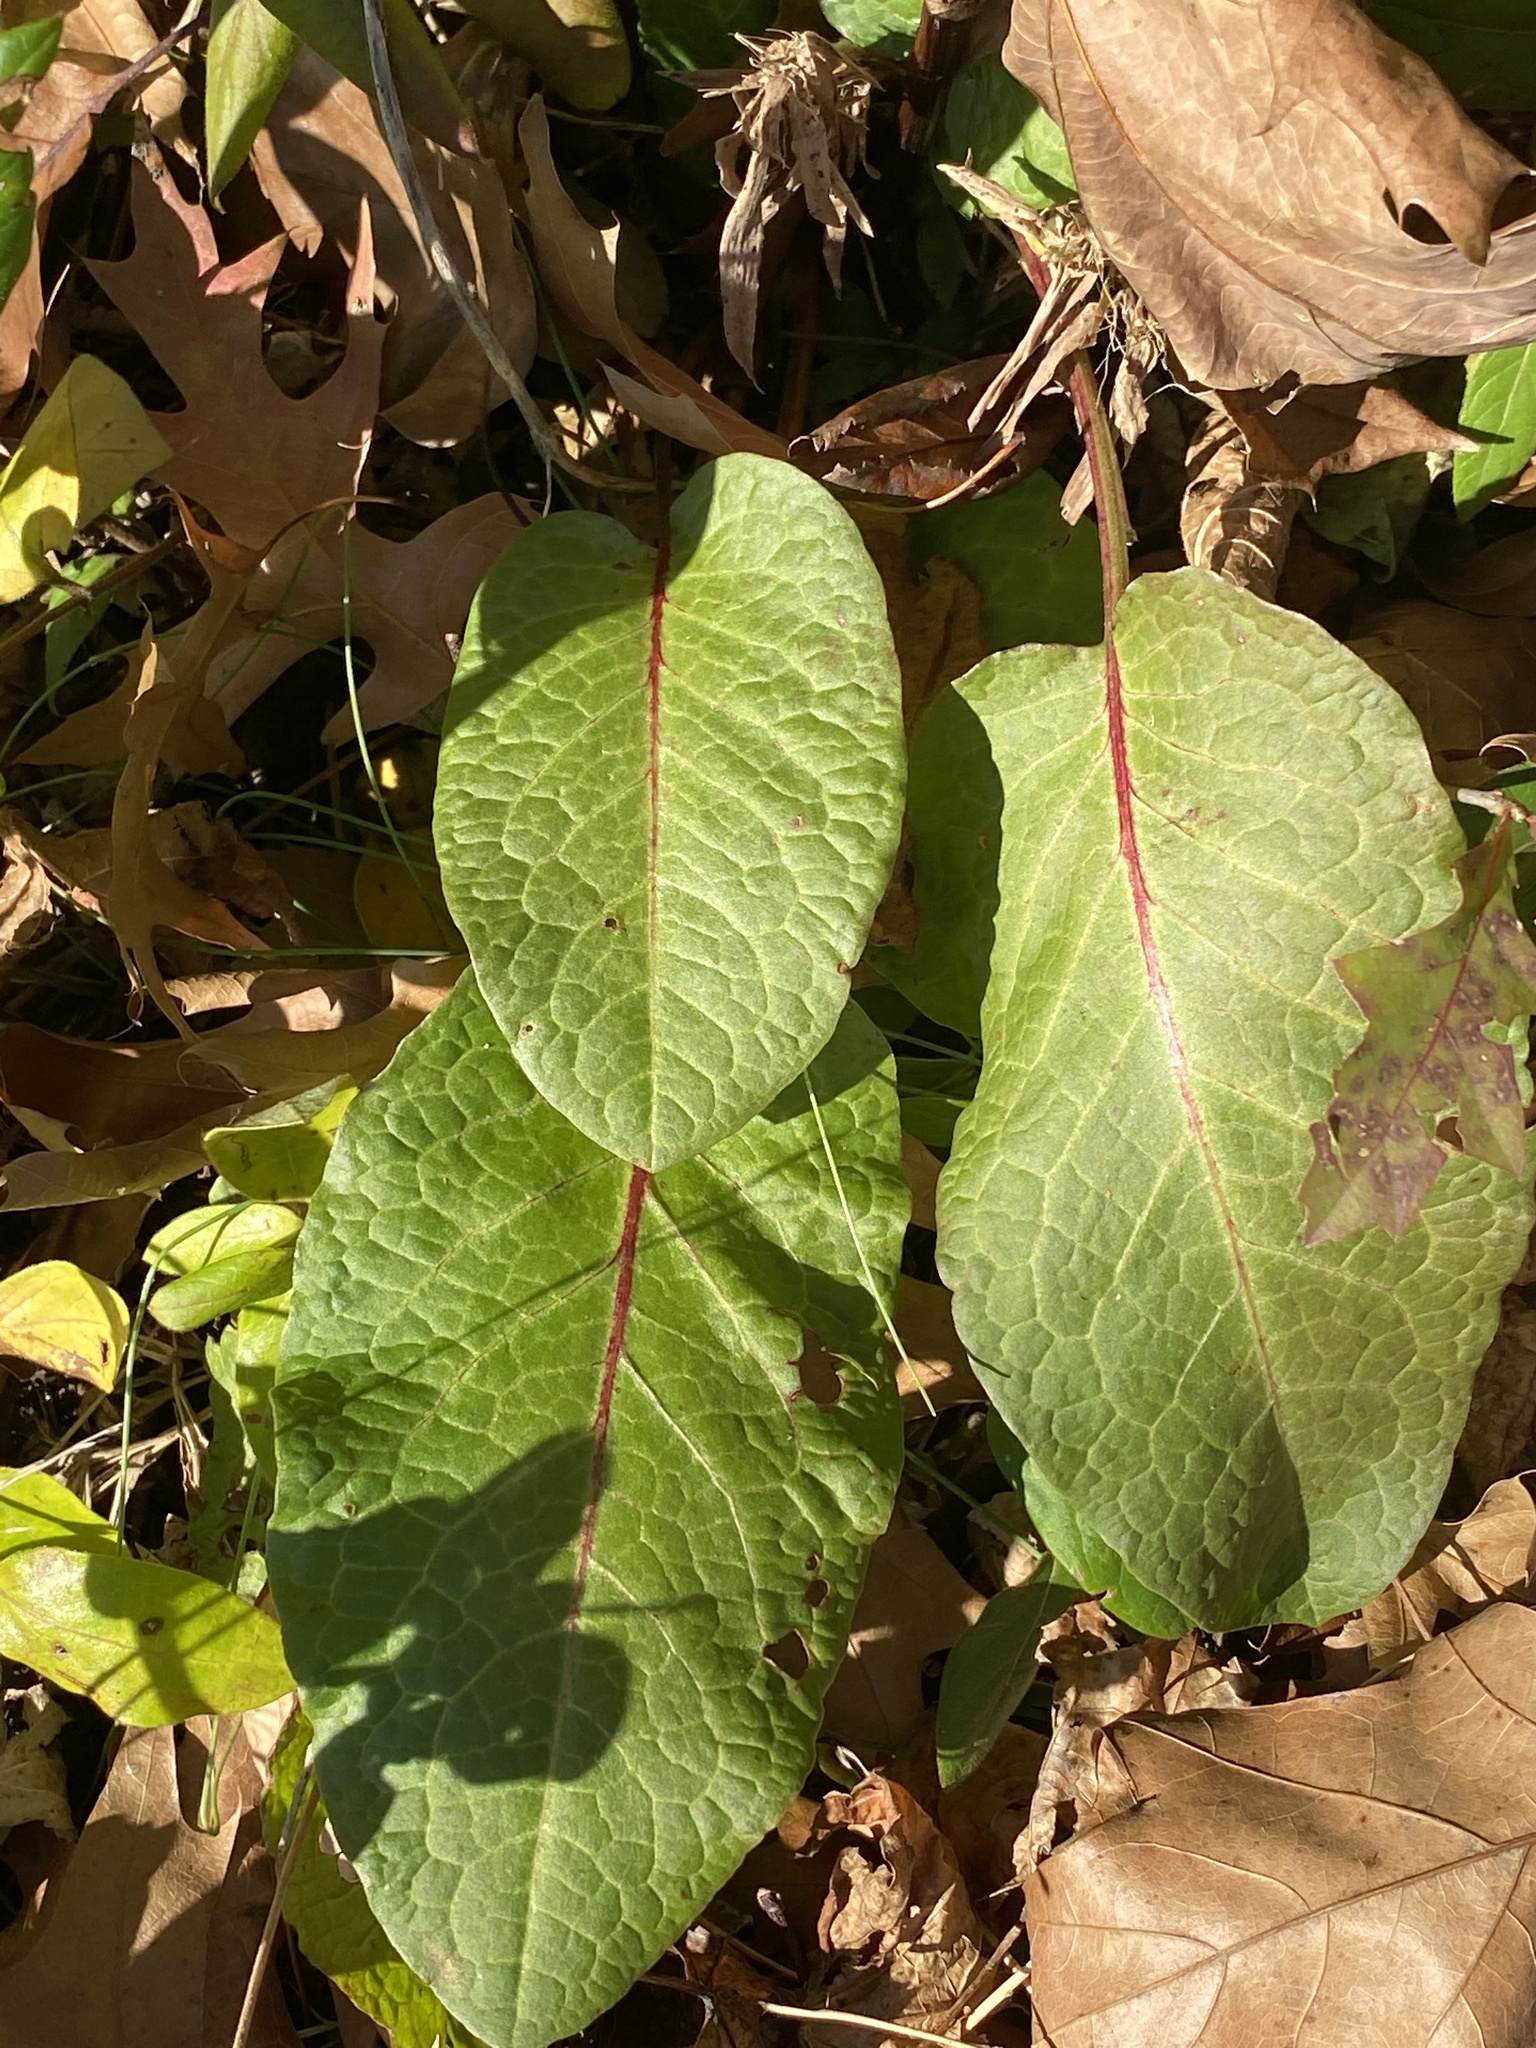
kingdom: Plantae
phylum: Tracheophyta
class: Magnoliopsida
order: Caryophyllales
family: Polygonaceae
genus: Rumex
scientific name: Rumex obtusifolius
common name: Bitter dock
